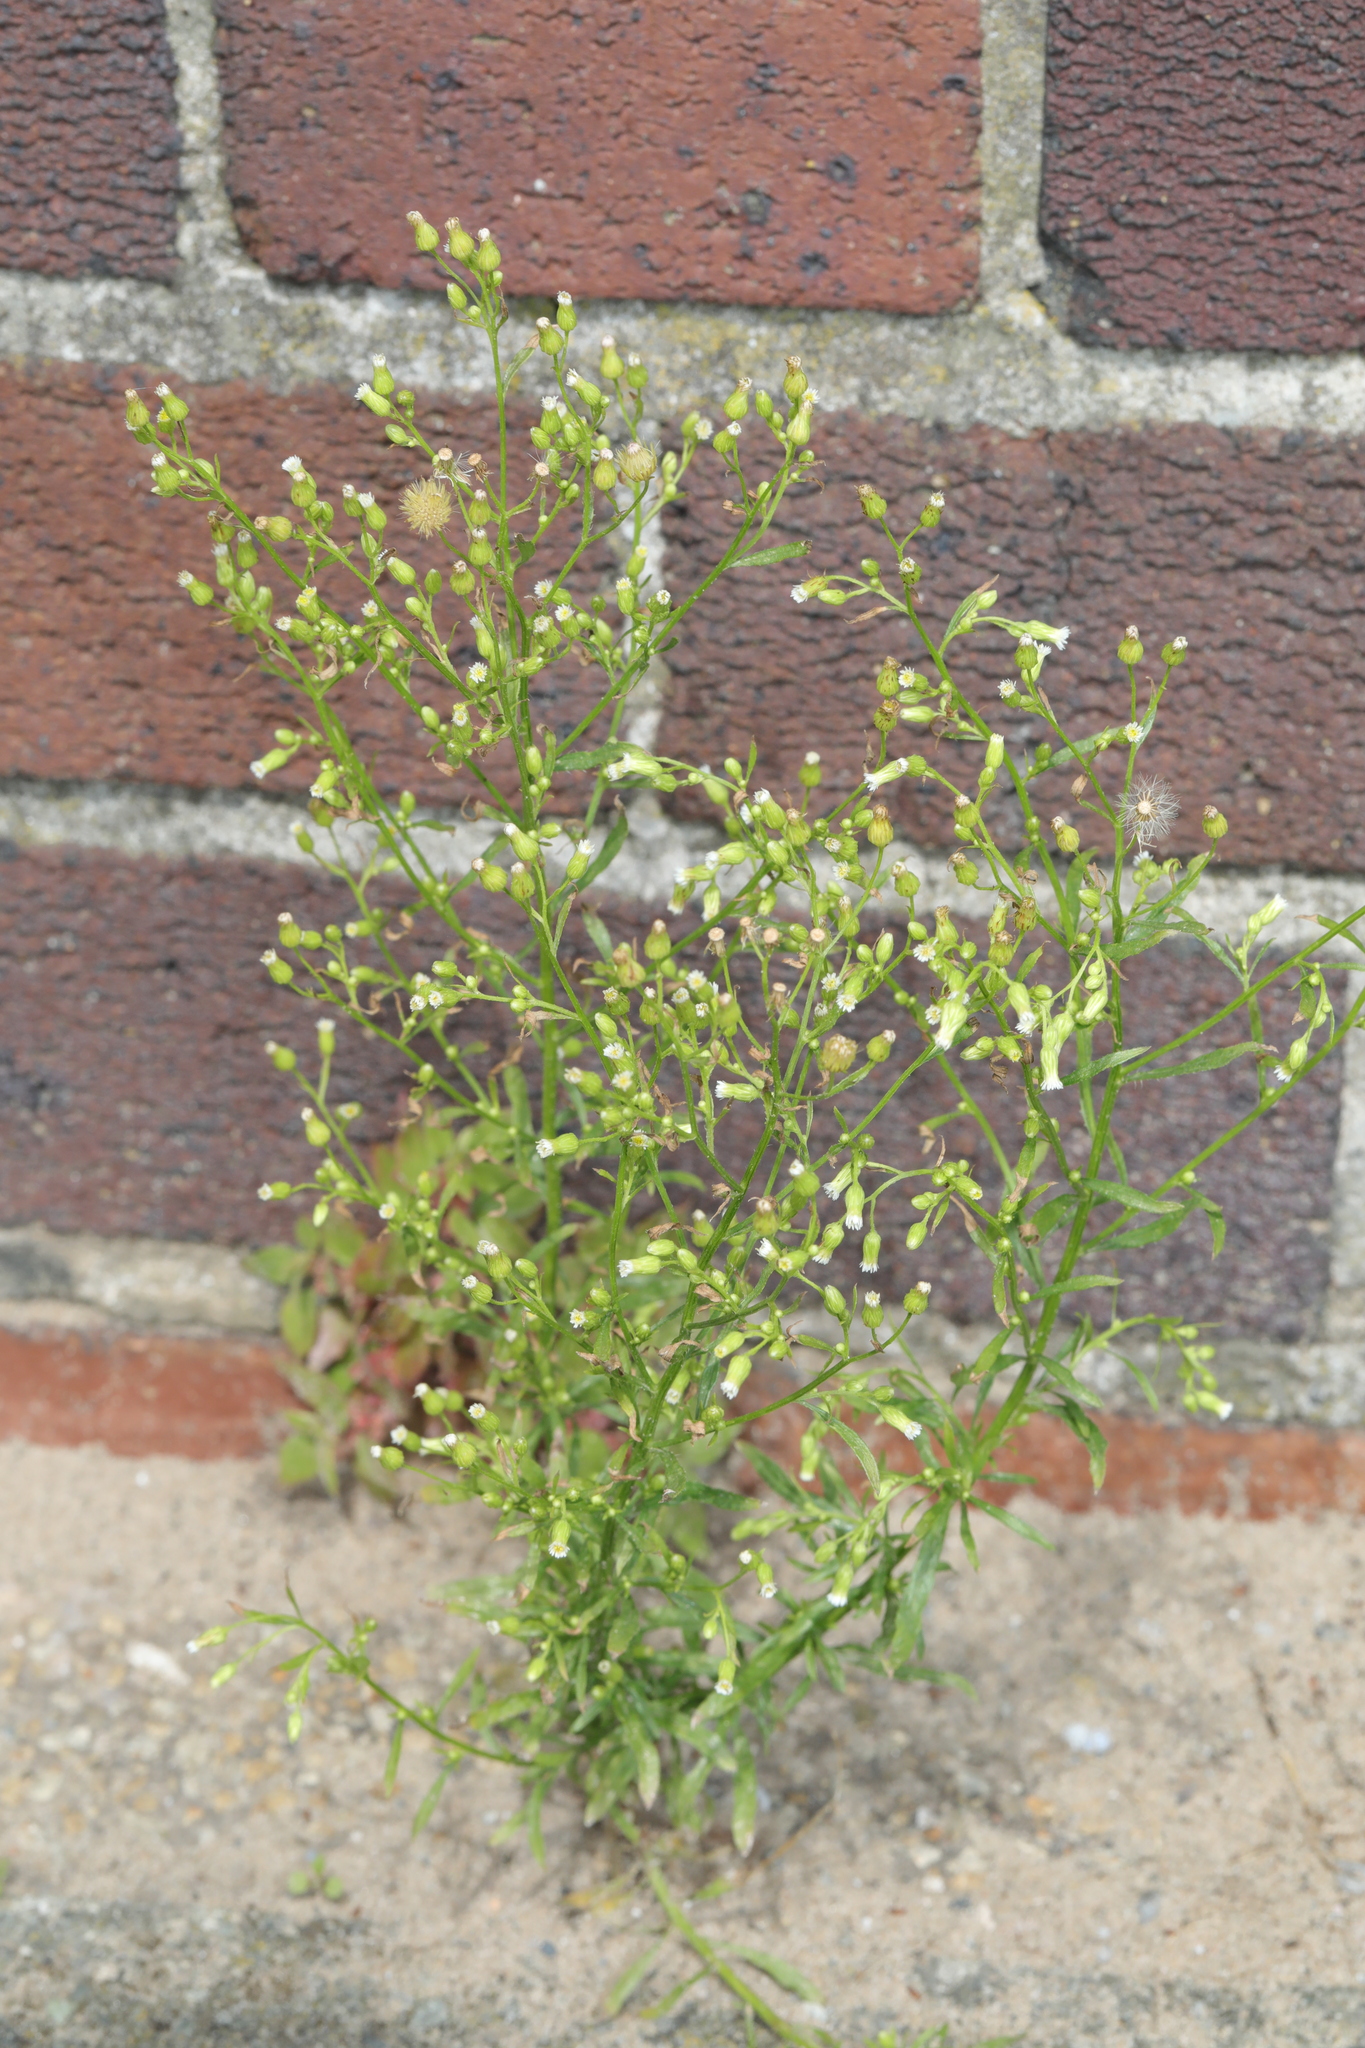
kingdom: Plantae
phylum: Tracheophyta
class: Magnoliopsida
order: Asterales
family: Asteraceae
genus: Erigeron
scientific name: Erigeron canadensis
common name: Canadian fleabane
